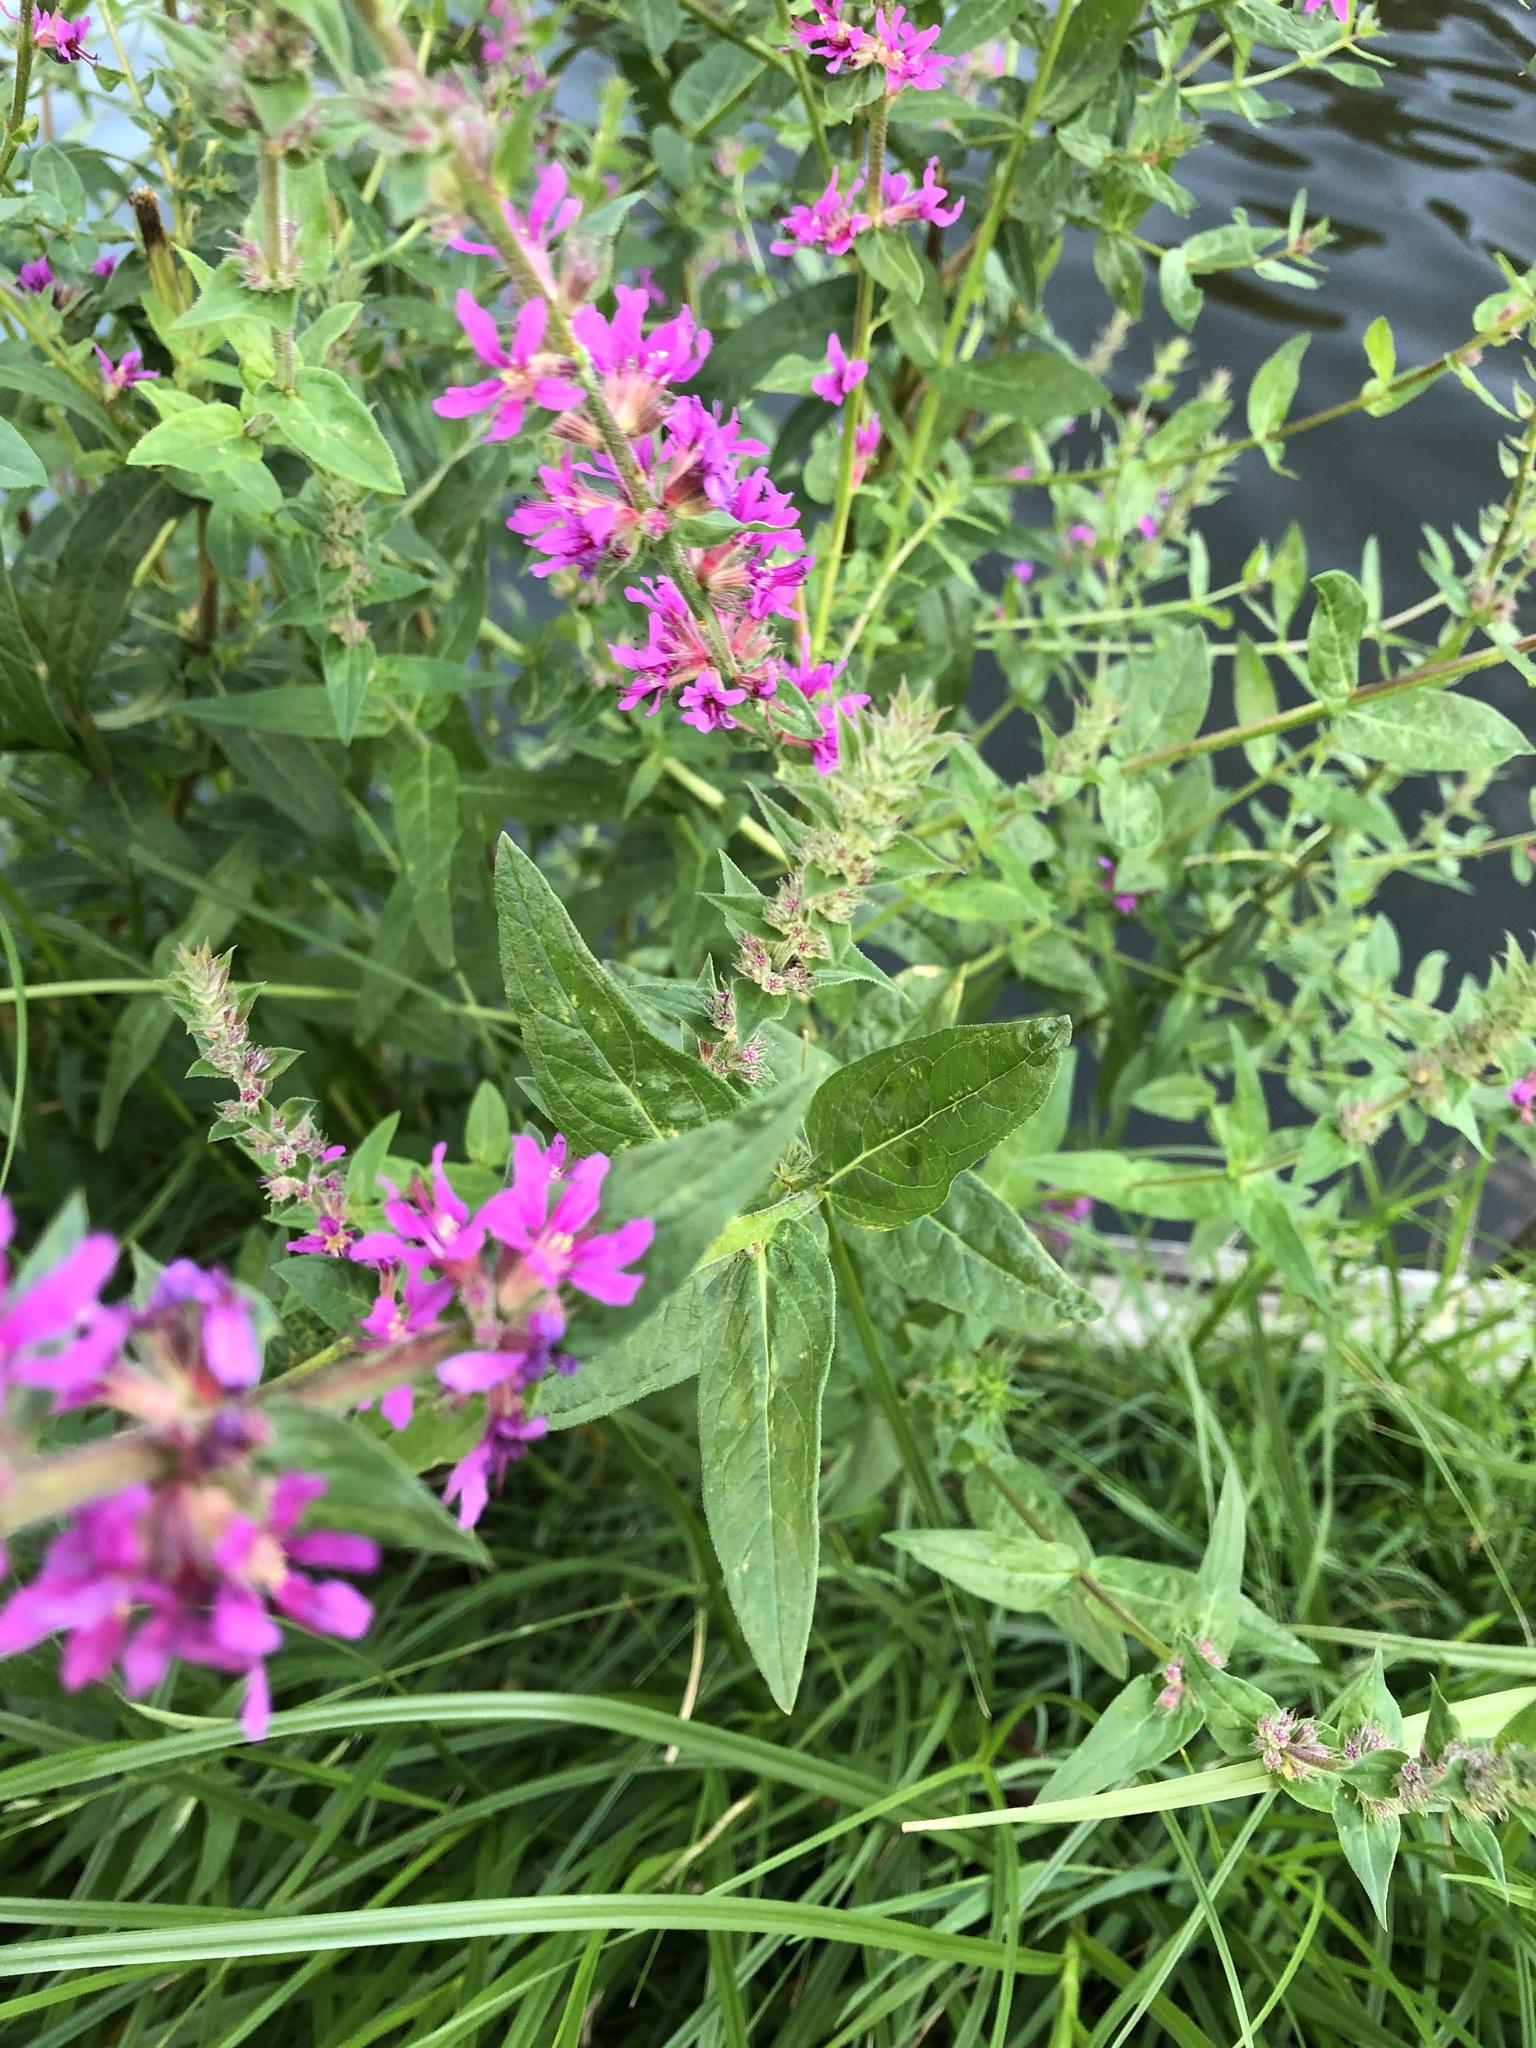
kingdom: Plantae
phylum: Tracheophyta
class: Magnoliopsida
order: Myrtales
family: Lythraceae
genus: Lythrum
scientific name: Lythrum salicaria
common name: Purple loosestrife
